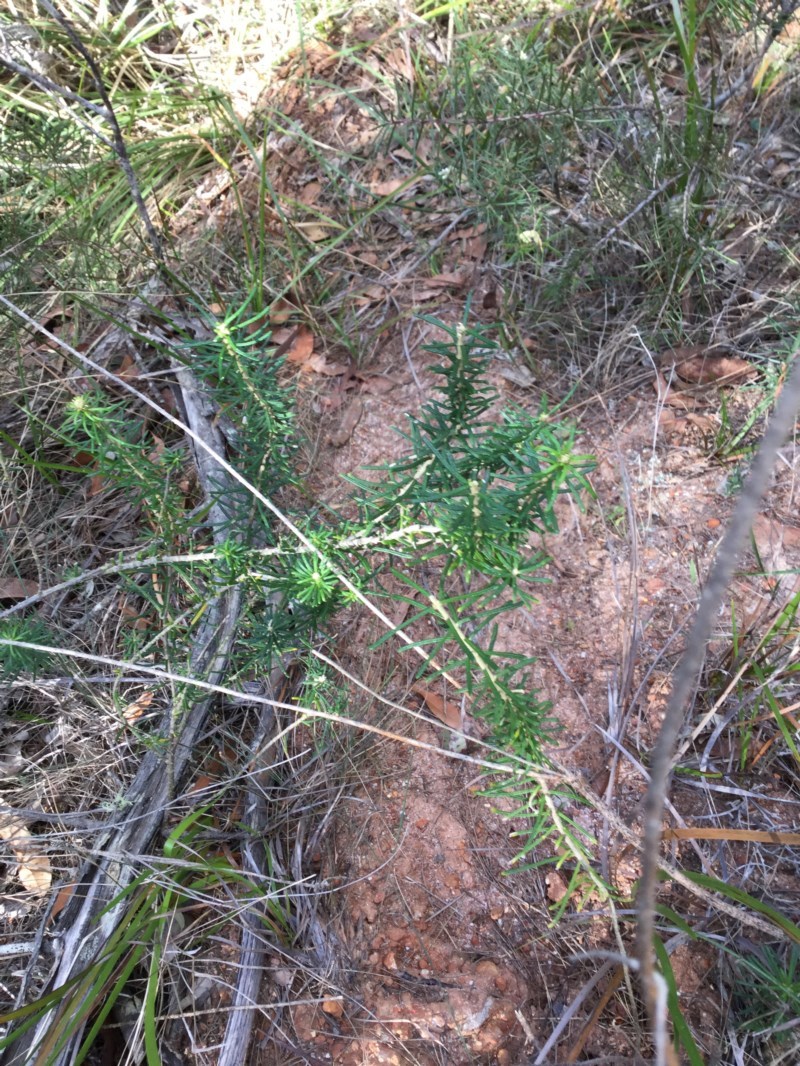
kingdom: Plantae
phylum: Tracheophyta
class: Magnoliopsida
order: Apiales
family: Araliaceae
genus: Astrotricha
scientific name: Astrotricha
